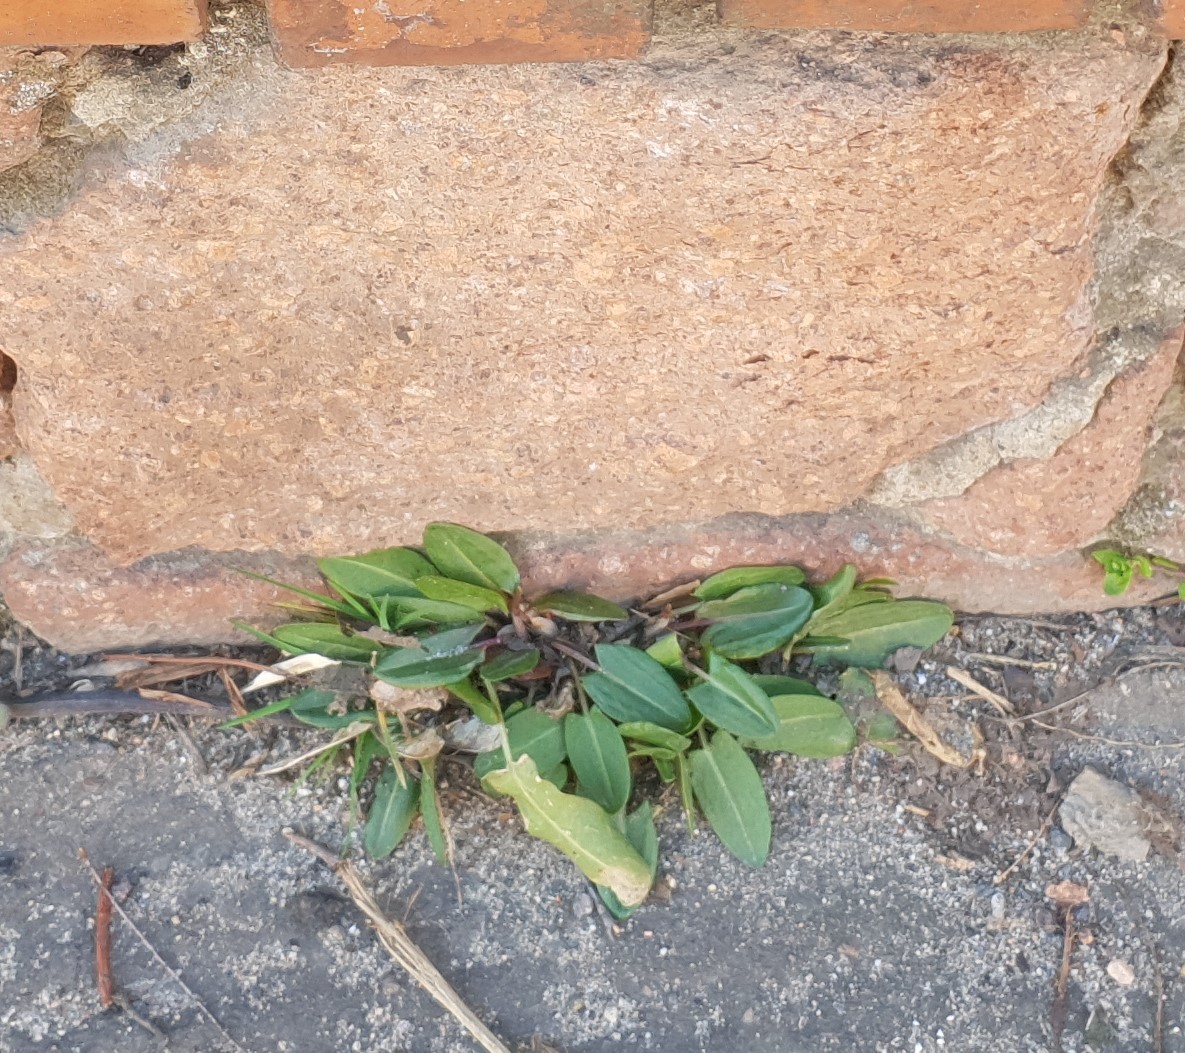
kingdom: Plantae
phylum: Tracheophyta
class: Magnoliopsida
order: Caryophyllales
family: Polygonaceae
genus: Rumex
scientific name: Rumex acetosa
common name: Garden sorrel
